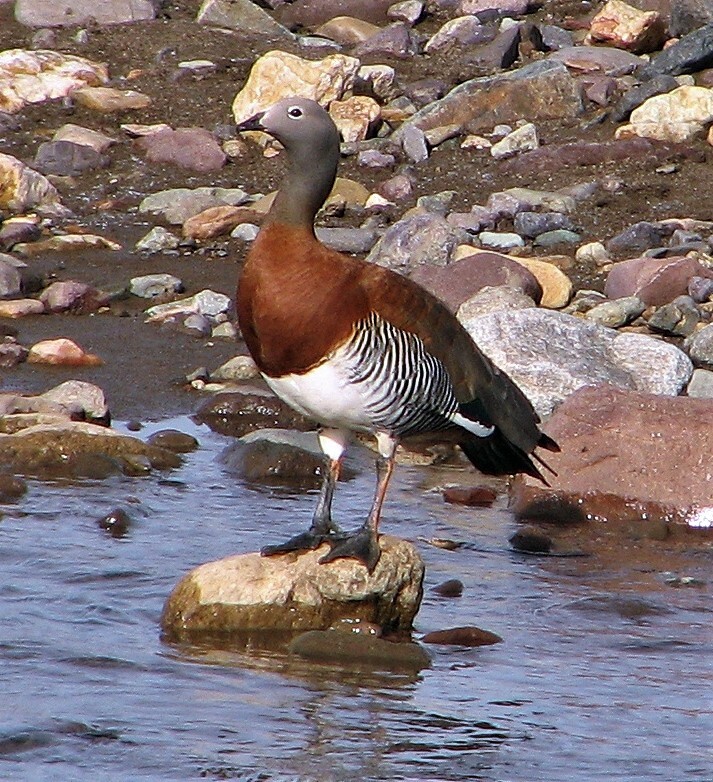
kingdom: Animalia
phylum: Chordata
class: Aves
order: Anseriformes
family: Anatidae
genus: Chloephaga
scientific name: Chloephaga poliocephala
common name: Ashy-headed goose
